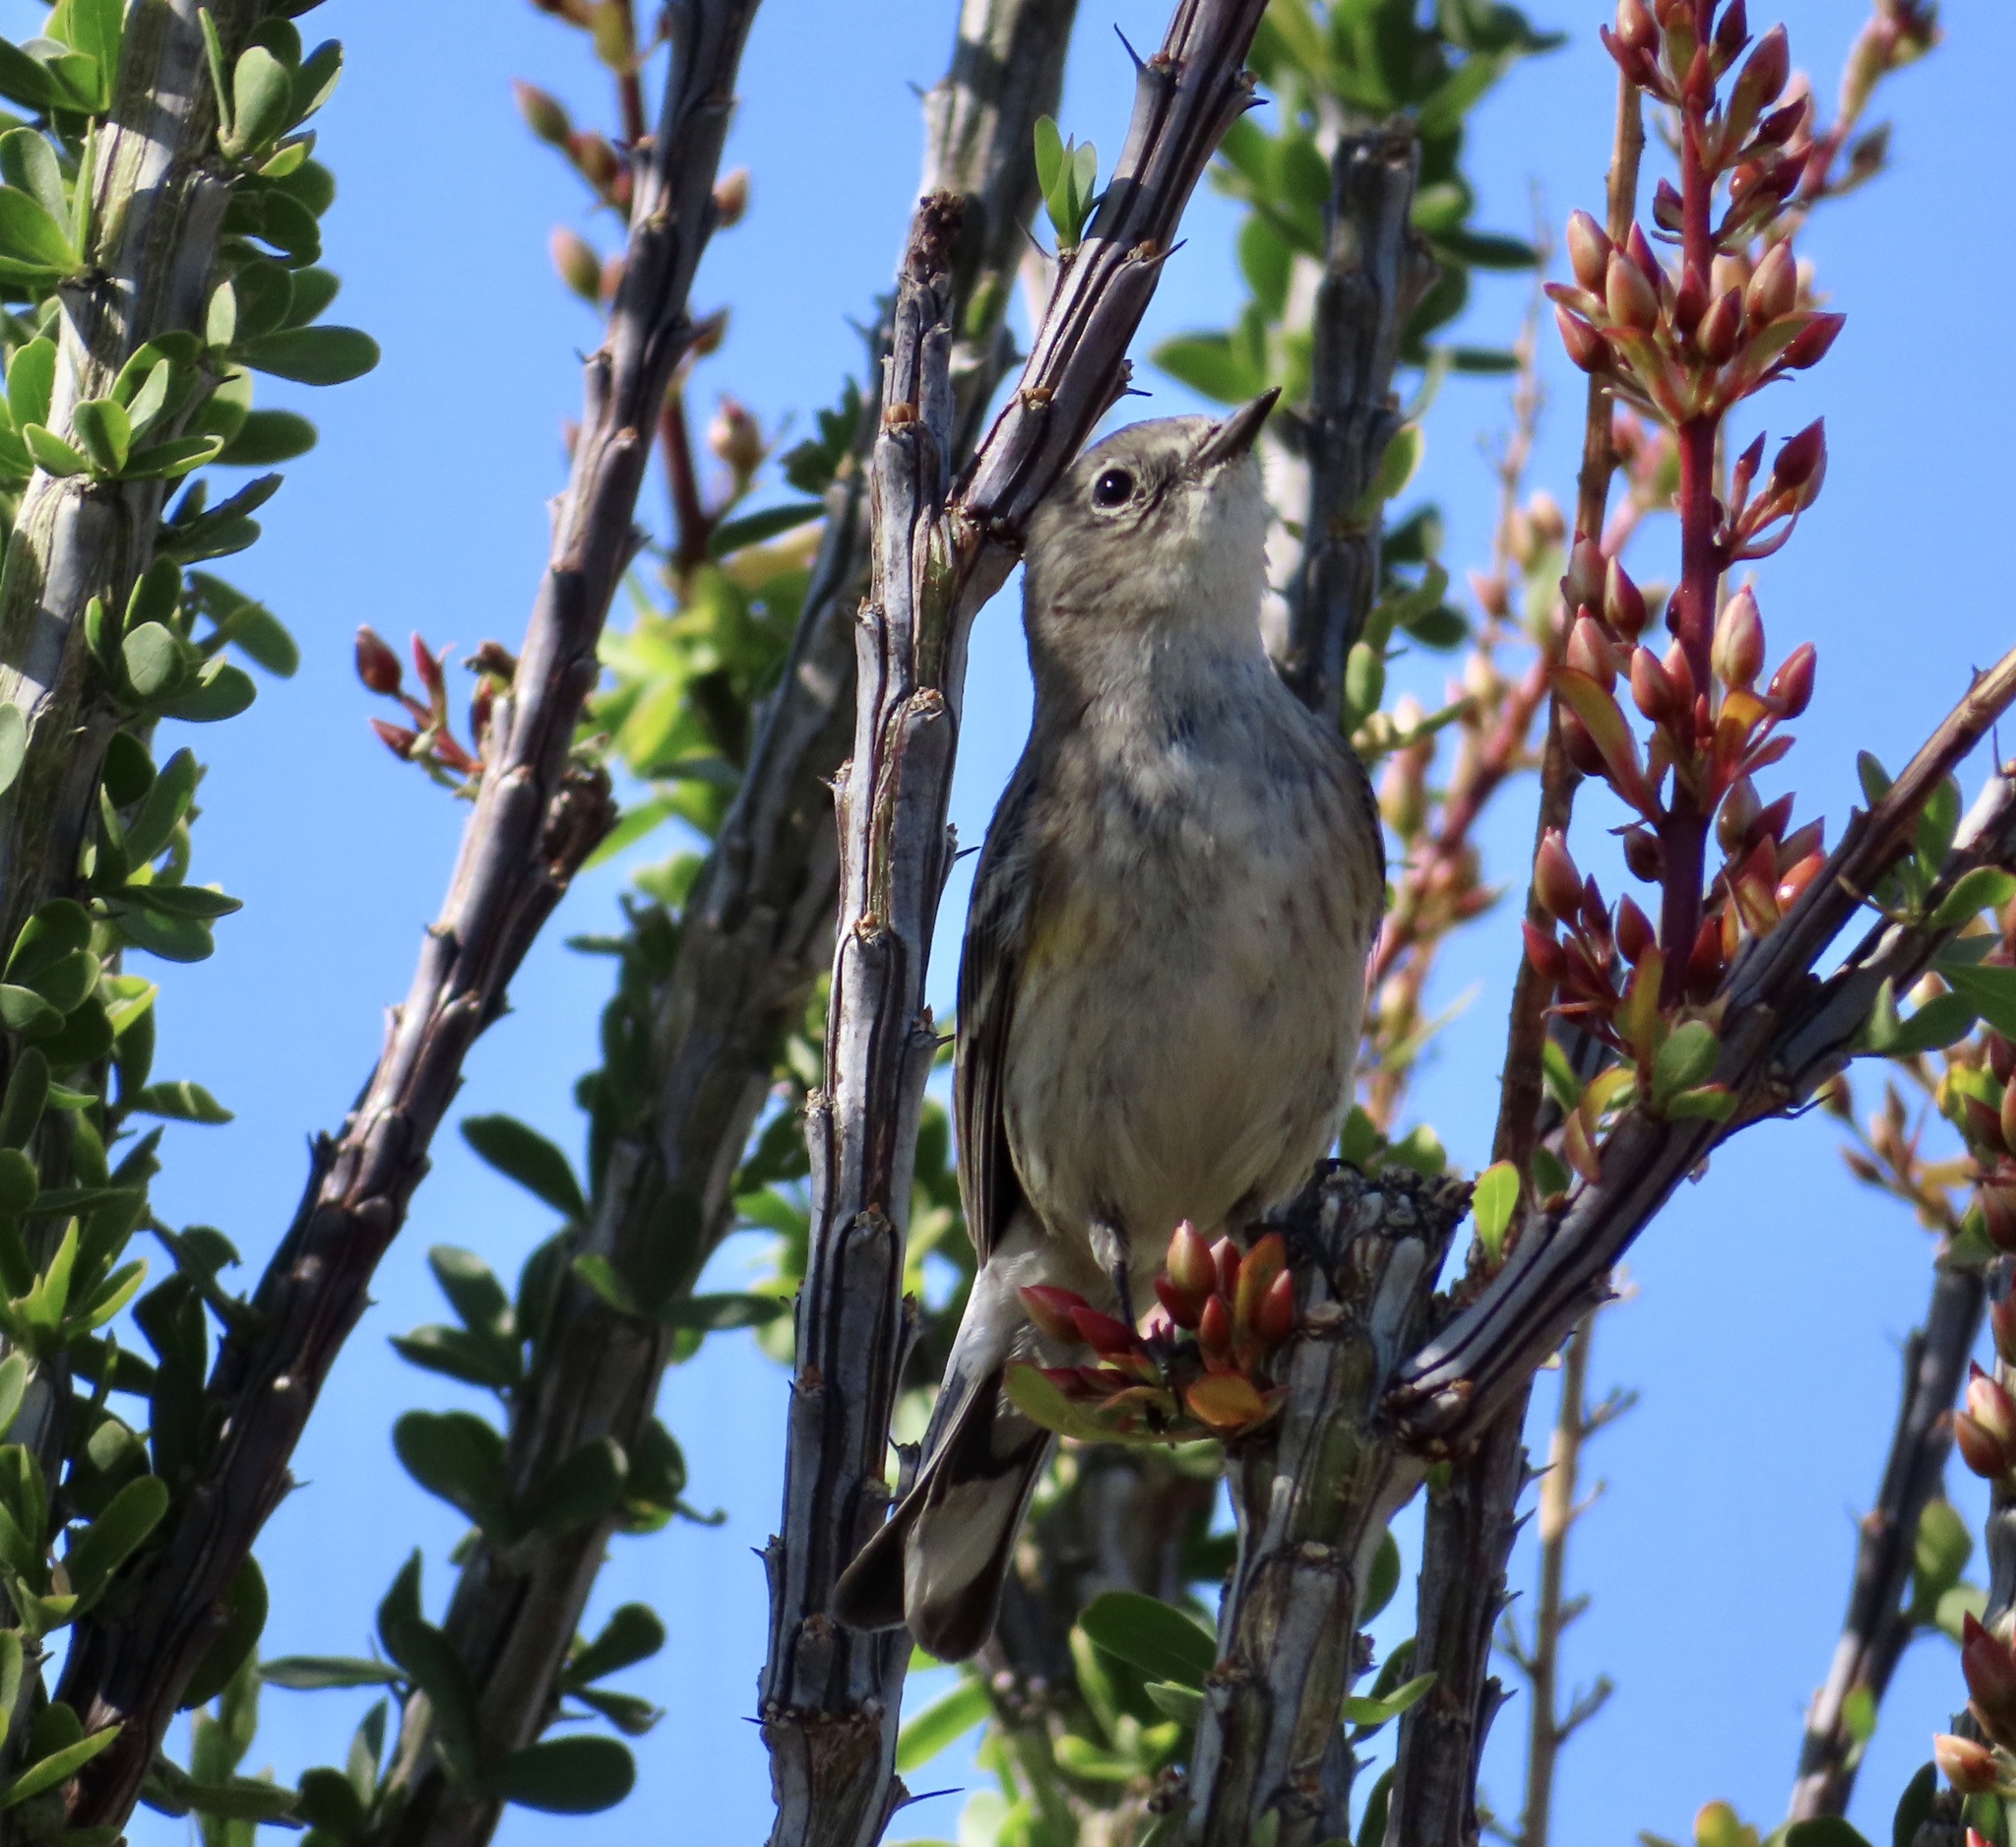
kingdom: Animalia
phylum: Chordata
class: Aves
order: Passeriformes
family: Parulidae
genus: Setophaga
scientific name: Setophaga coronata
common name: Myrtle warbler
